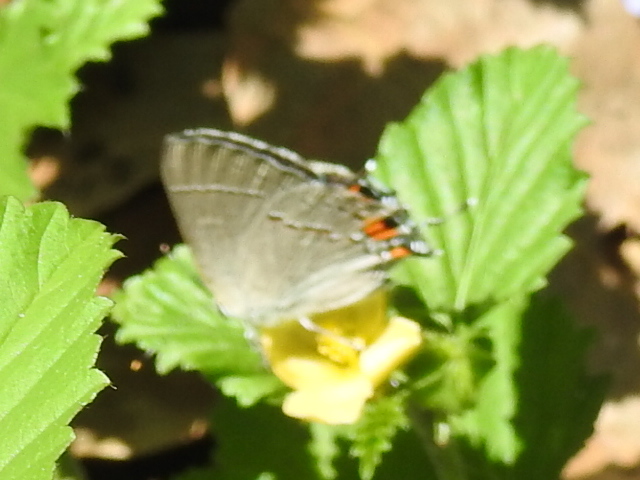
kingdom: Animalia
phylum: Arthropoda
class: Insecta
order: Lepidoptera
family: Lycaenidae
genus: Strymon
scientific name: Strymon melinus
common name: Gray hairstreak
